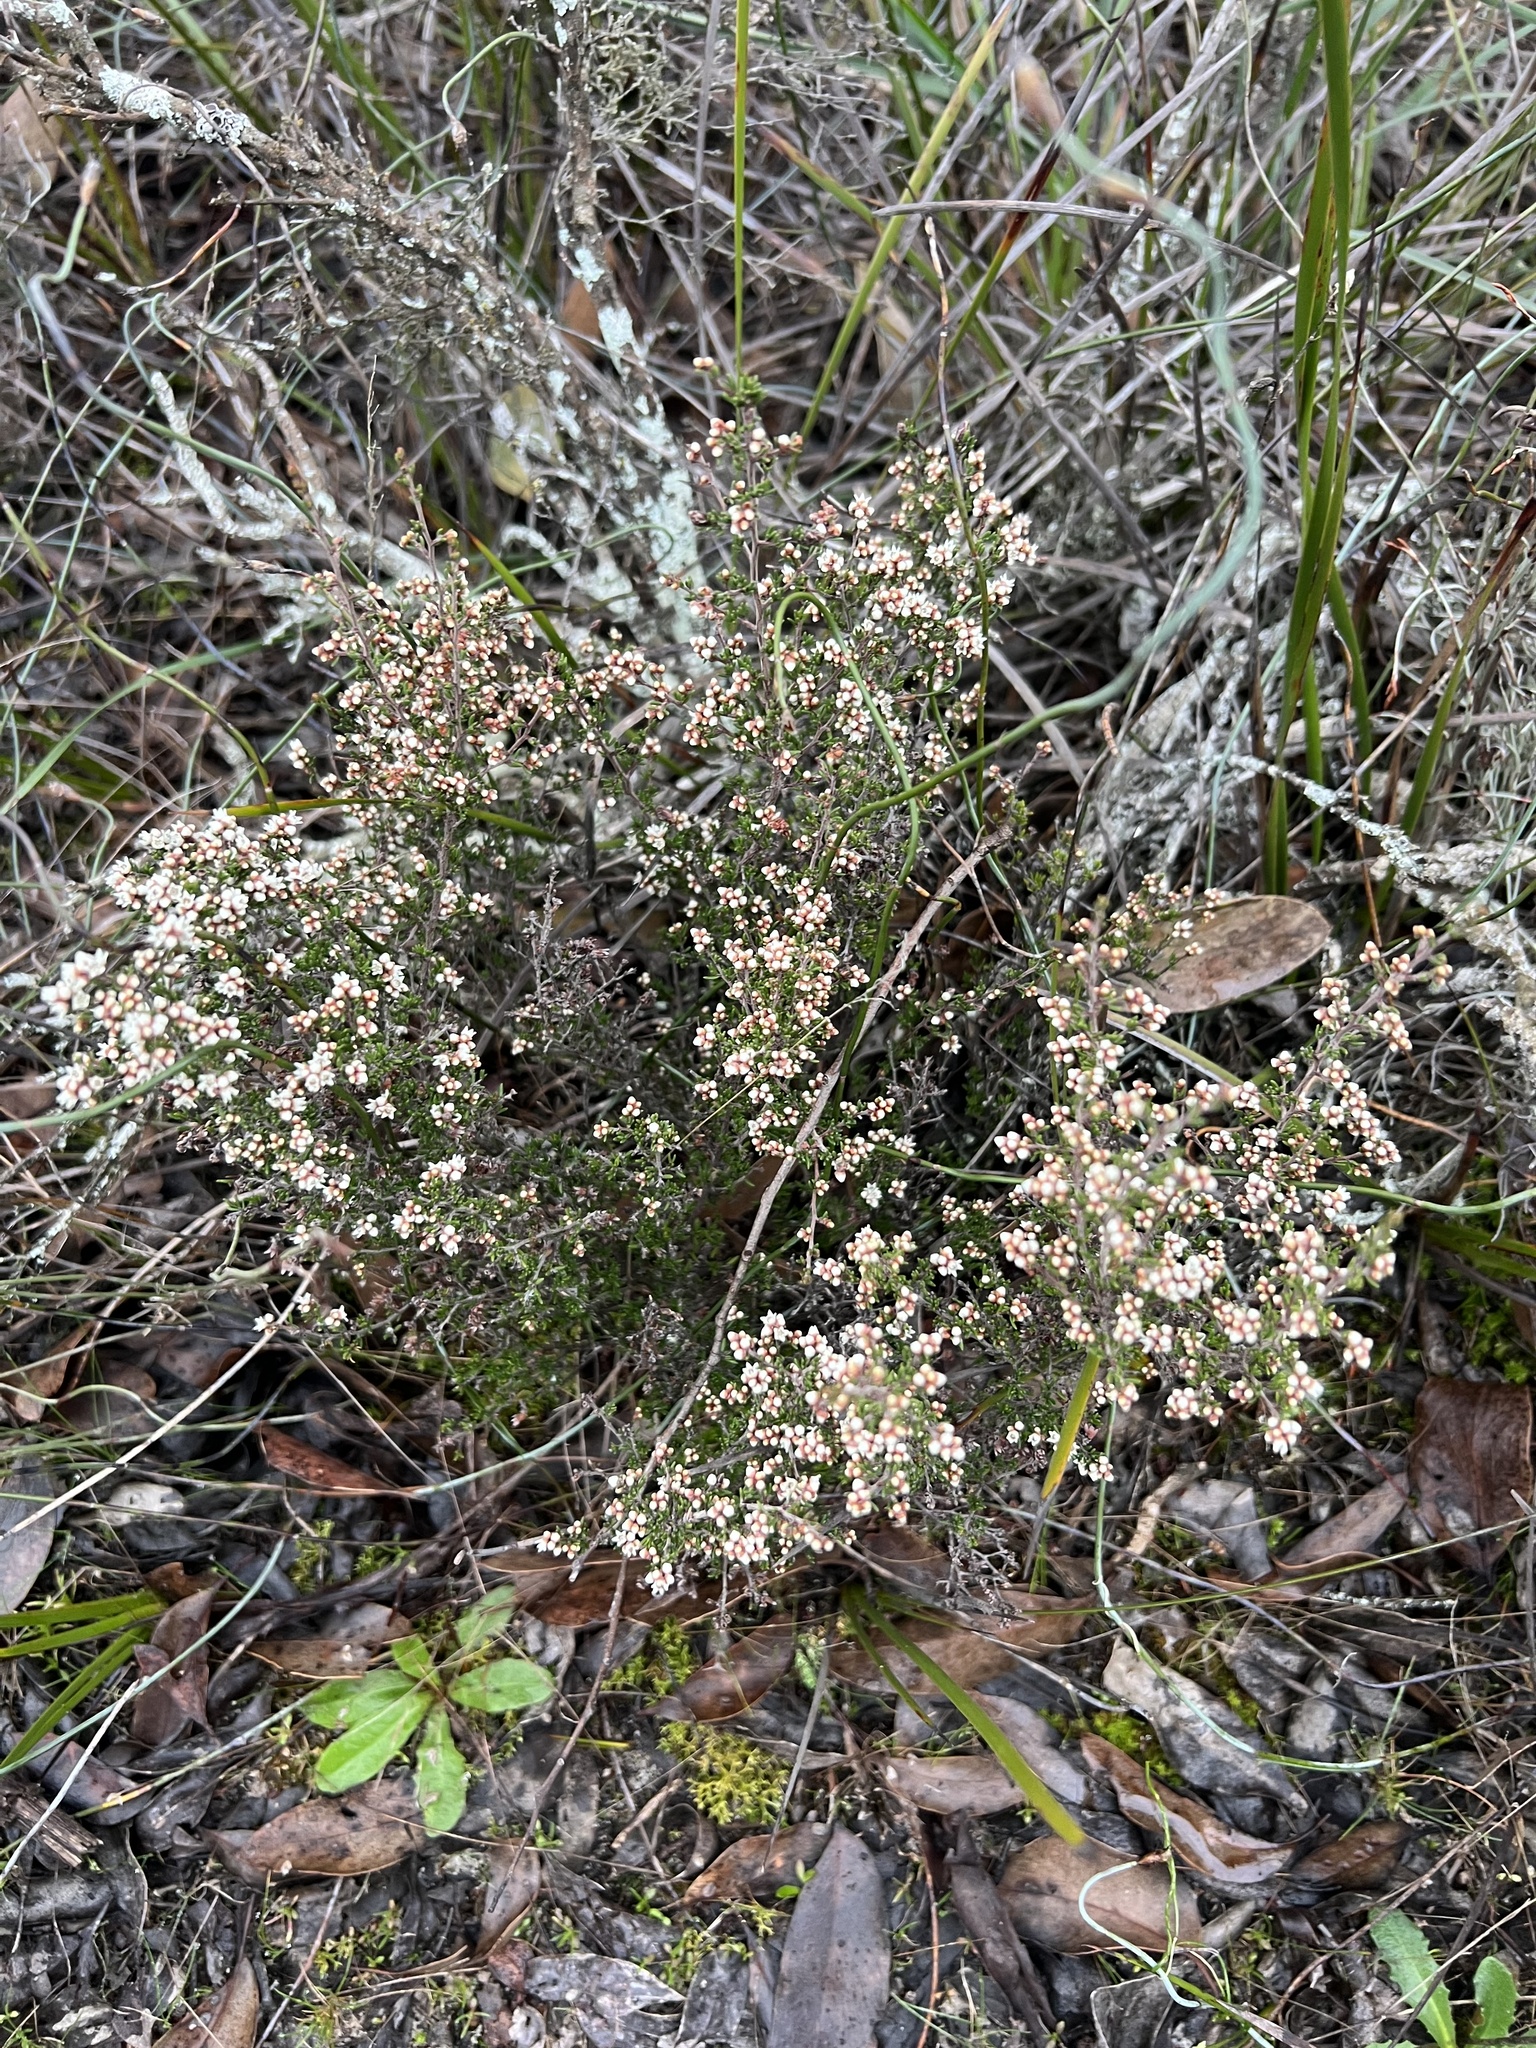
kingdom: Plantae
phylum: Tracheophyta
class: Magnoliopsida
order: Rosales
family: Rhamnaceae
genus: Cryptandra
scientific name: Cryptandra tomentosa
